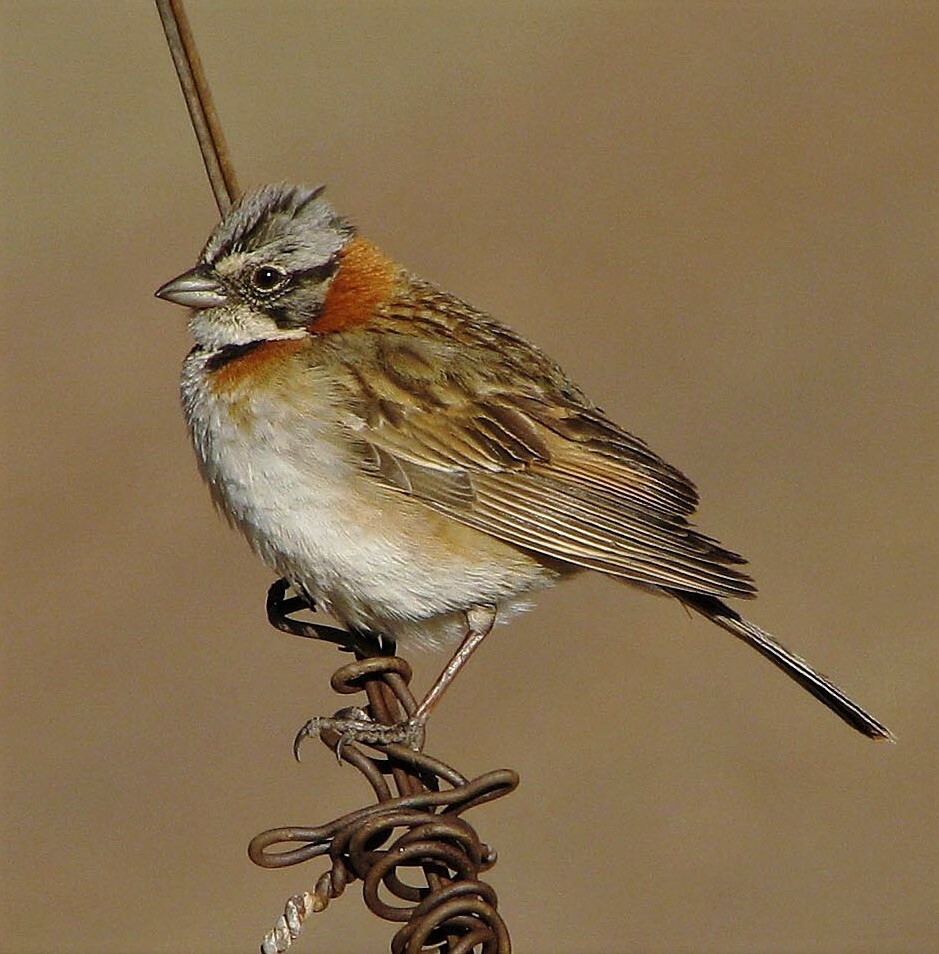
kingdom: Animalia
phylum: Chordata
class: Aves
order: Passeriformes
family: Passerellidae
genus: Zonotrichia
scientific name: Zonotrichia capensis
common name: Rufous-collared sparrow
